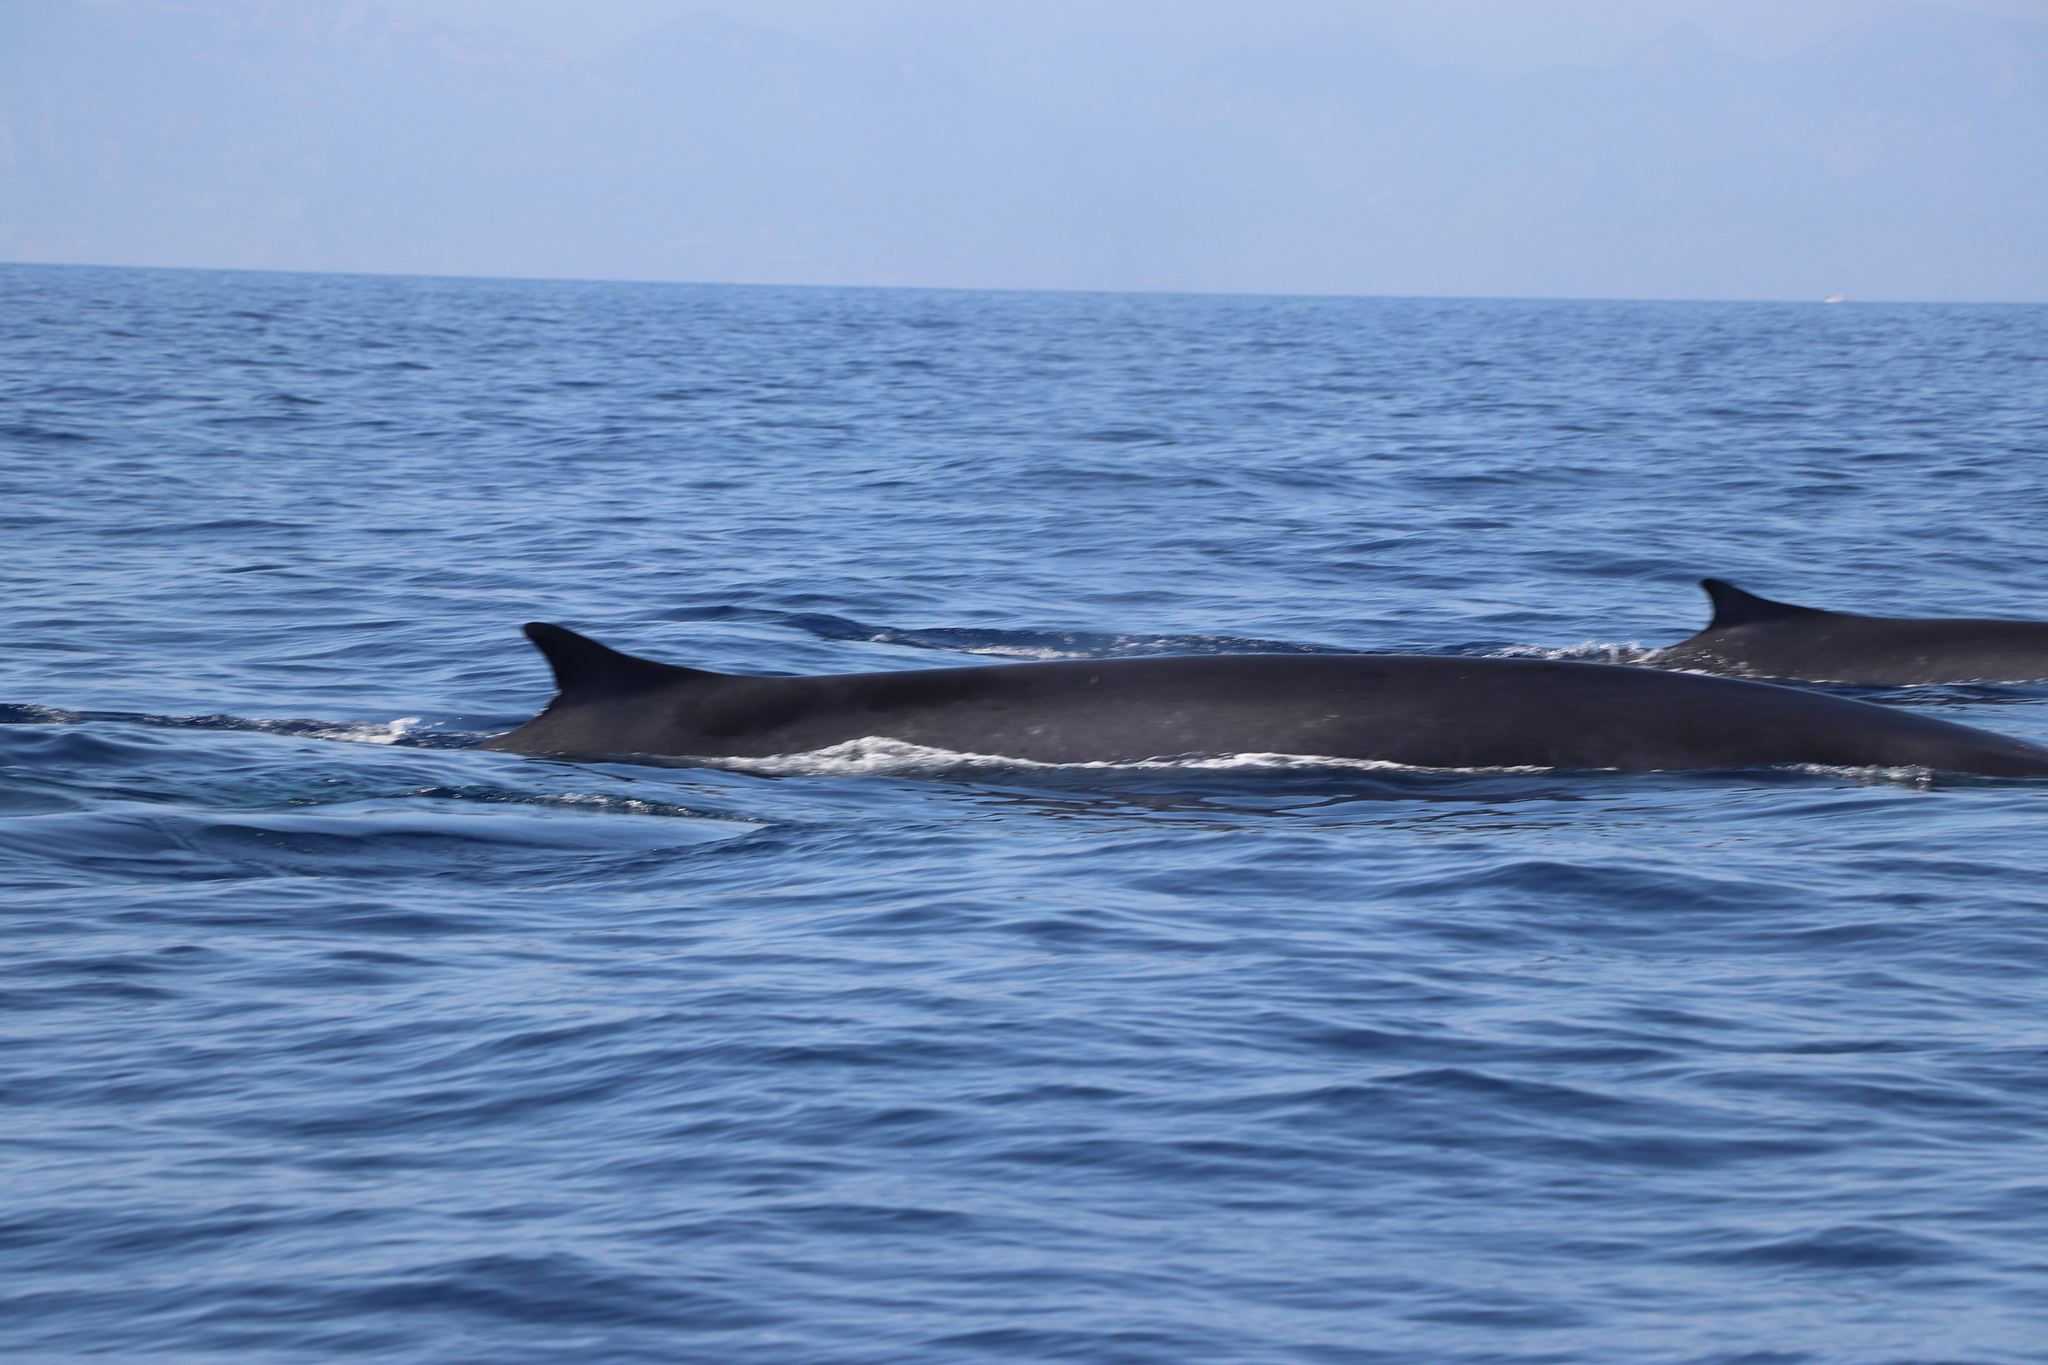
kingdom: Animalia
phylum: Chordata
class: Mammalia
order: Cetacea
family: Balaenopteridae
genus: Balaenoptera
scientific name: Balaenoptera physalus
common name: Fin whale
